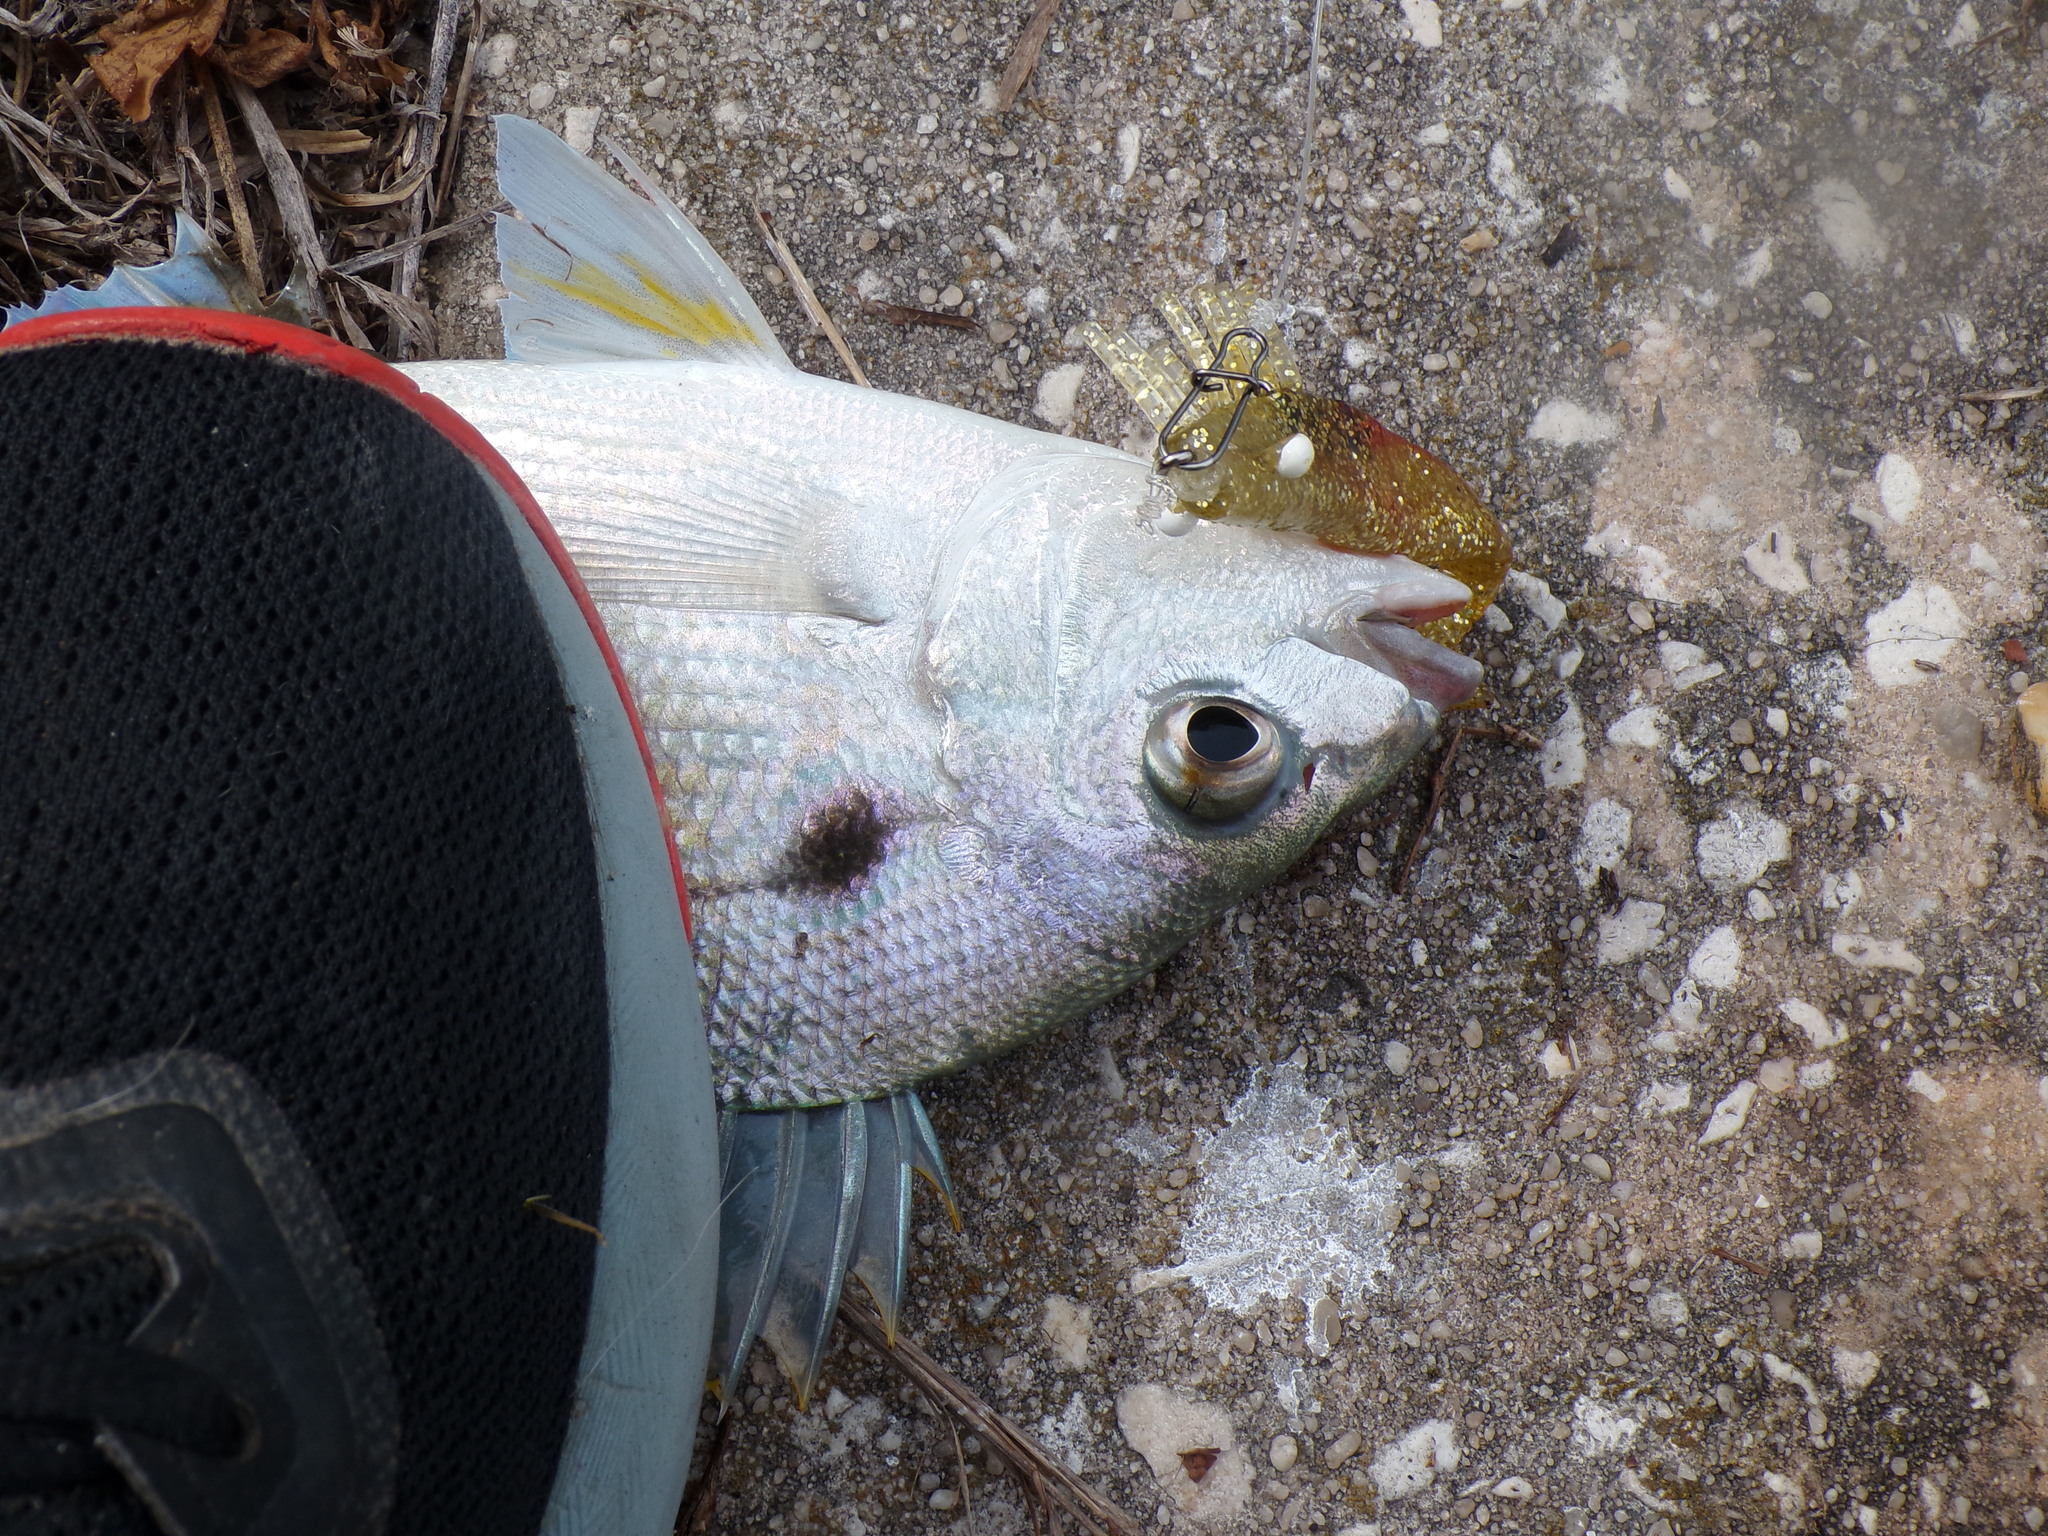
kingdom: Animalia
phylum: Chordata
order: Perciformes
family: Sparidae
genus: Lagodon
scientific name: Lagodon rhomboides
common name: Pinfish
